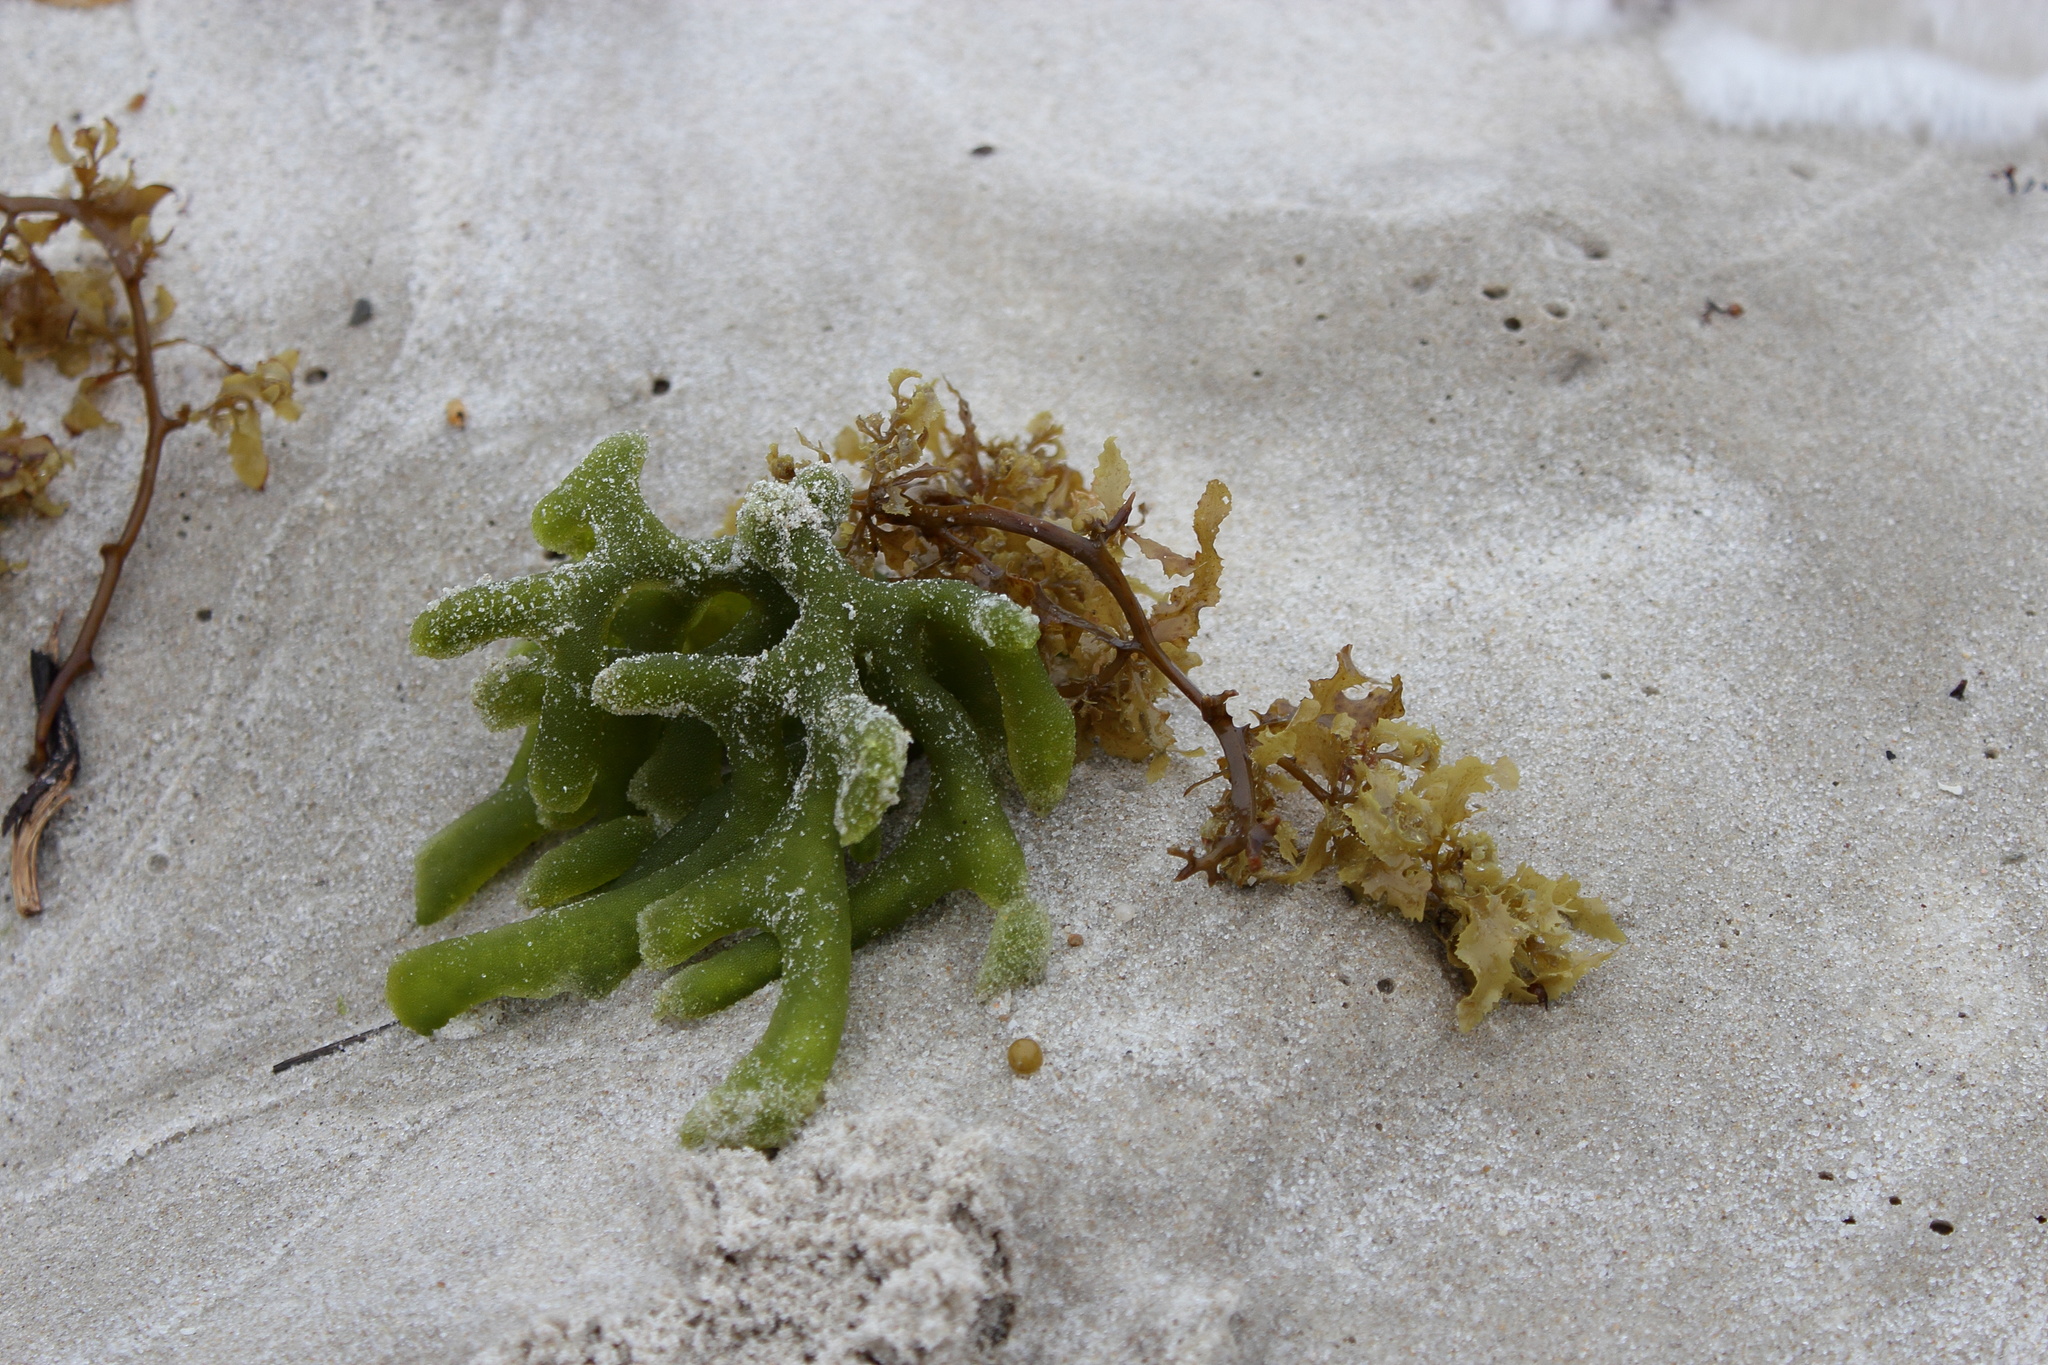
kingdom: Plantae
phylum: Chlorophyta
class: Ulvophyceae
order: Bryopsidales
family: Codiaceae
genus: Codium
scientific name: Codium fragile
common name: Dead man's fingers
